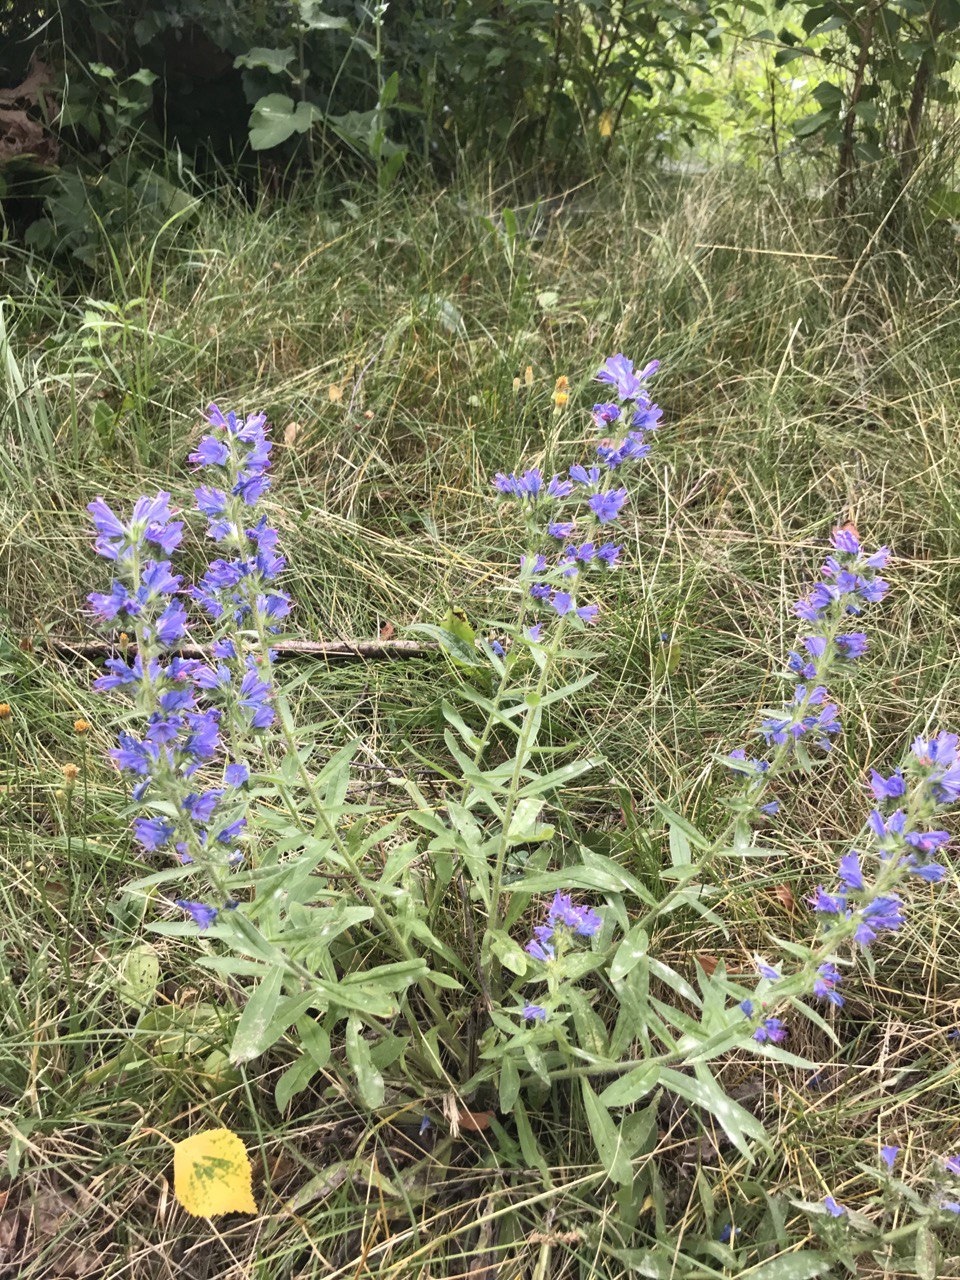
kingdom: Plantae
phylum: Tracheophyta
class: Magnoliopsida
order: Boraginales
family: Boraginaceae
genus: Echium
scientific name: Echium vulgare
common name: Common viper's bugloss
